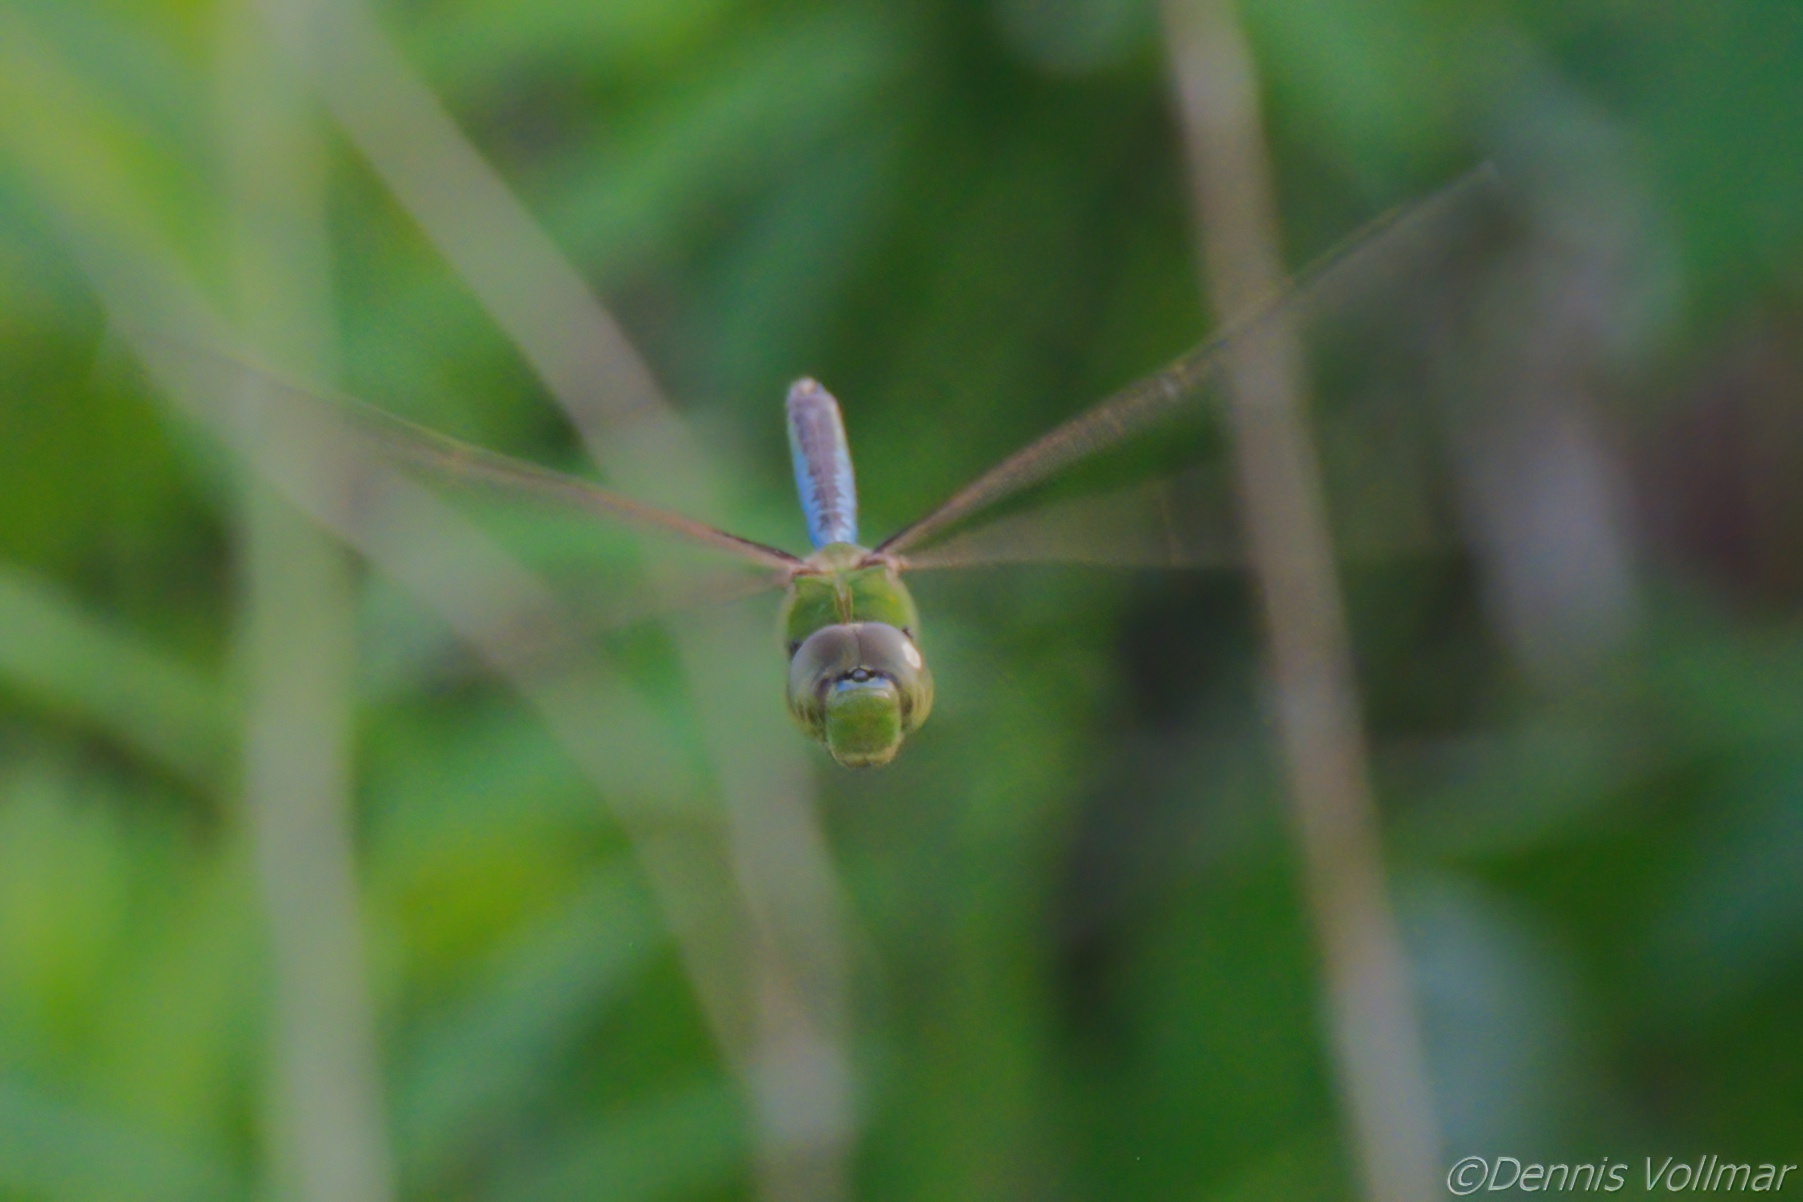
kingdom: Animalia
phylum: Arthropoda
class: Insecta
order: Odonata
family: Aeshnidae
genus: Anax
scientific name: Anax junius
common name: Common green darner
